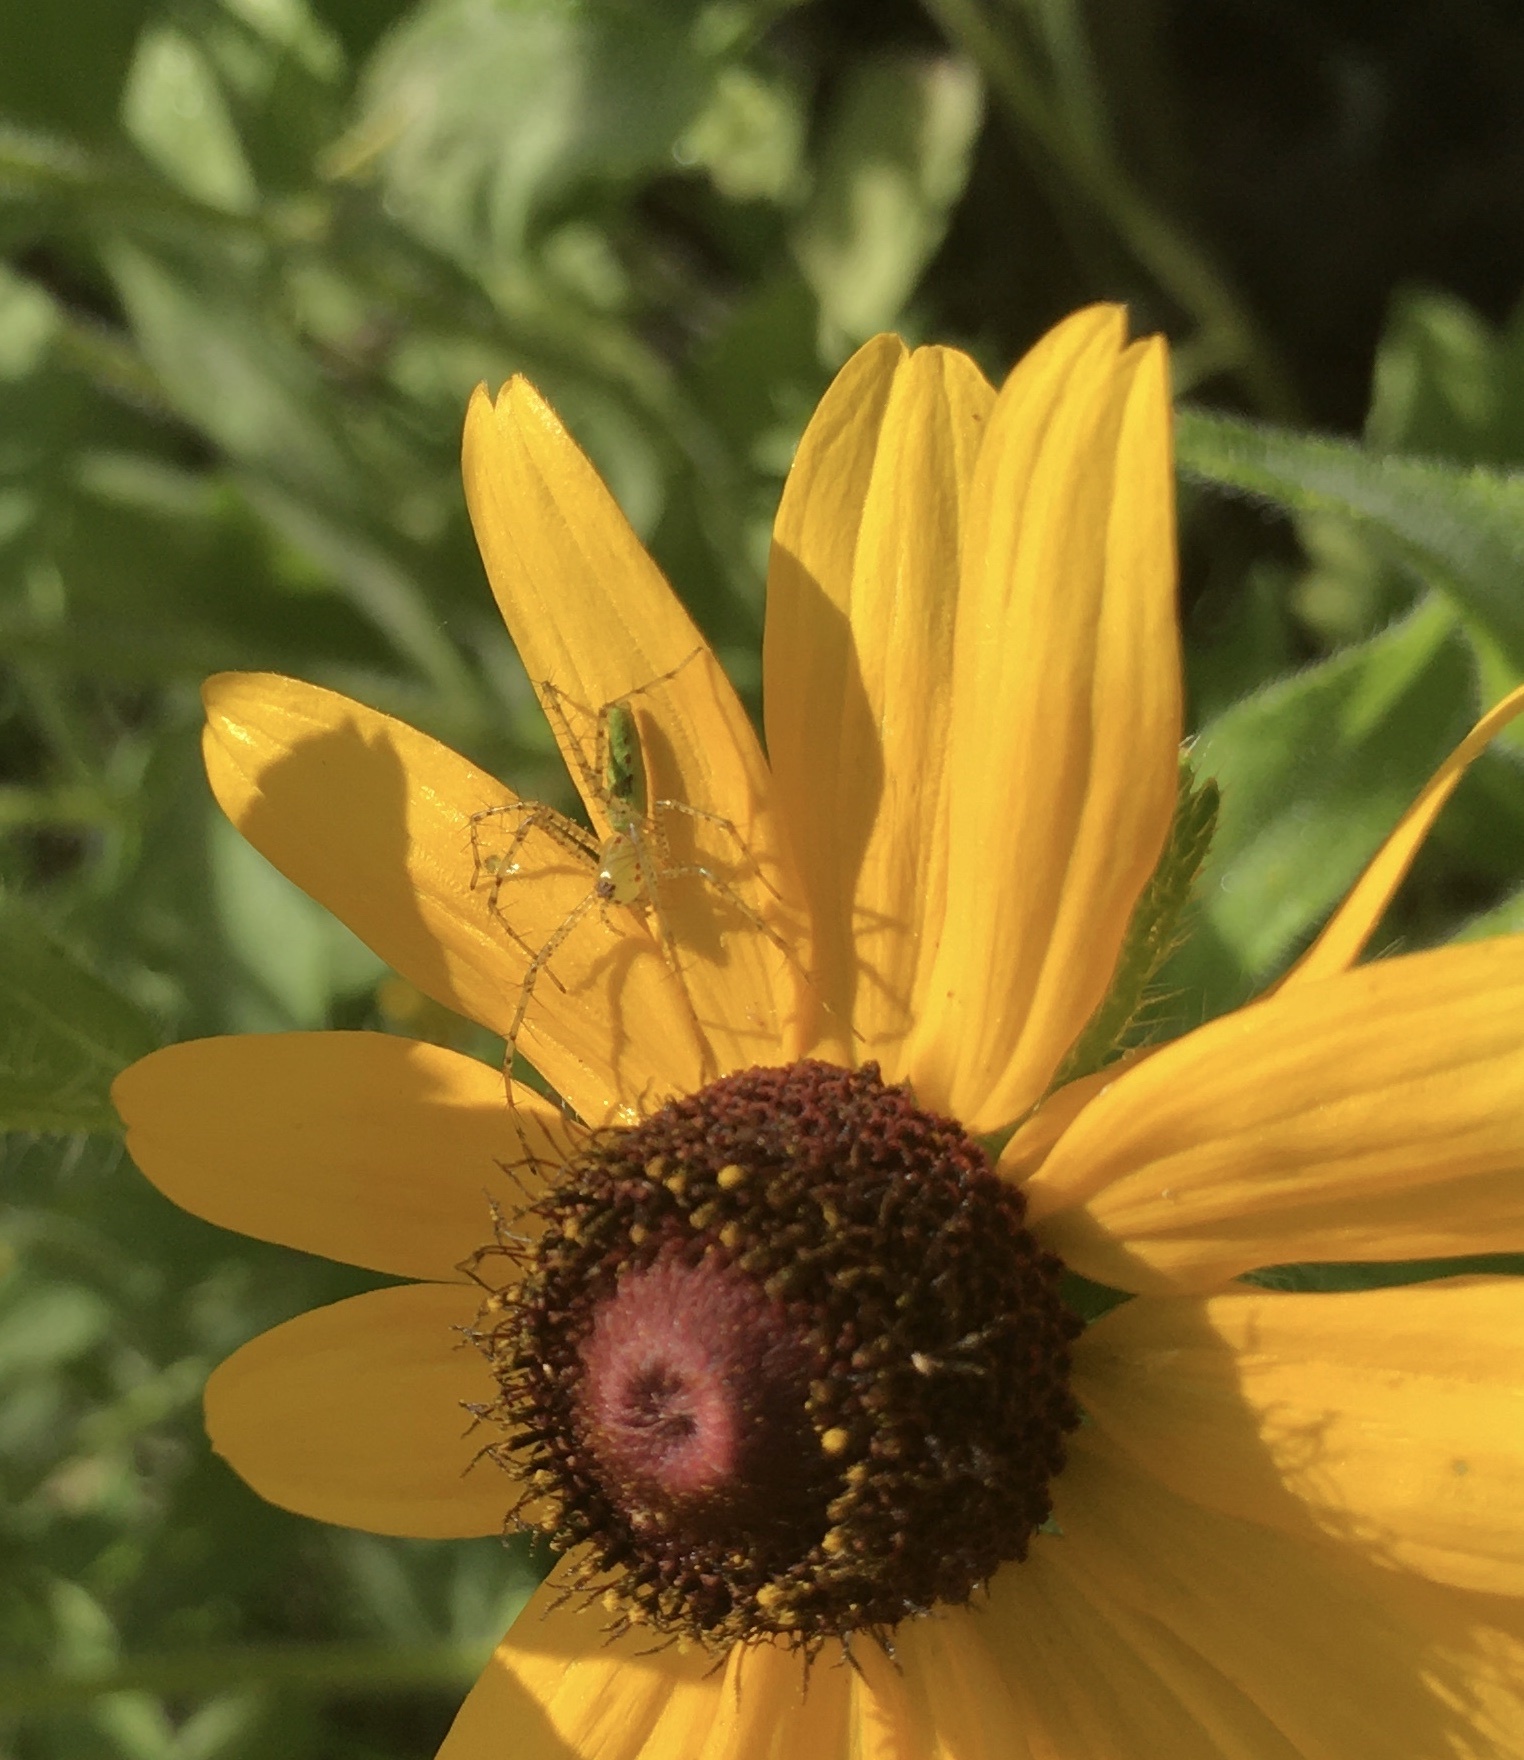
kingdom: Animalia
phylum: Arthropoda
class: Arachnida
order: Araneae
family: Oxyopidae
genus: Peucetia
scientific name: Peucetia viridans
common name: Lynx spiders
